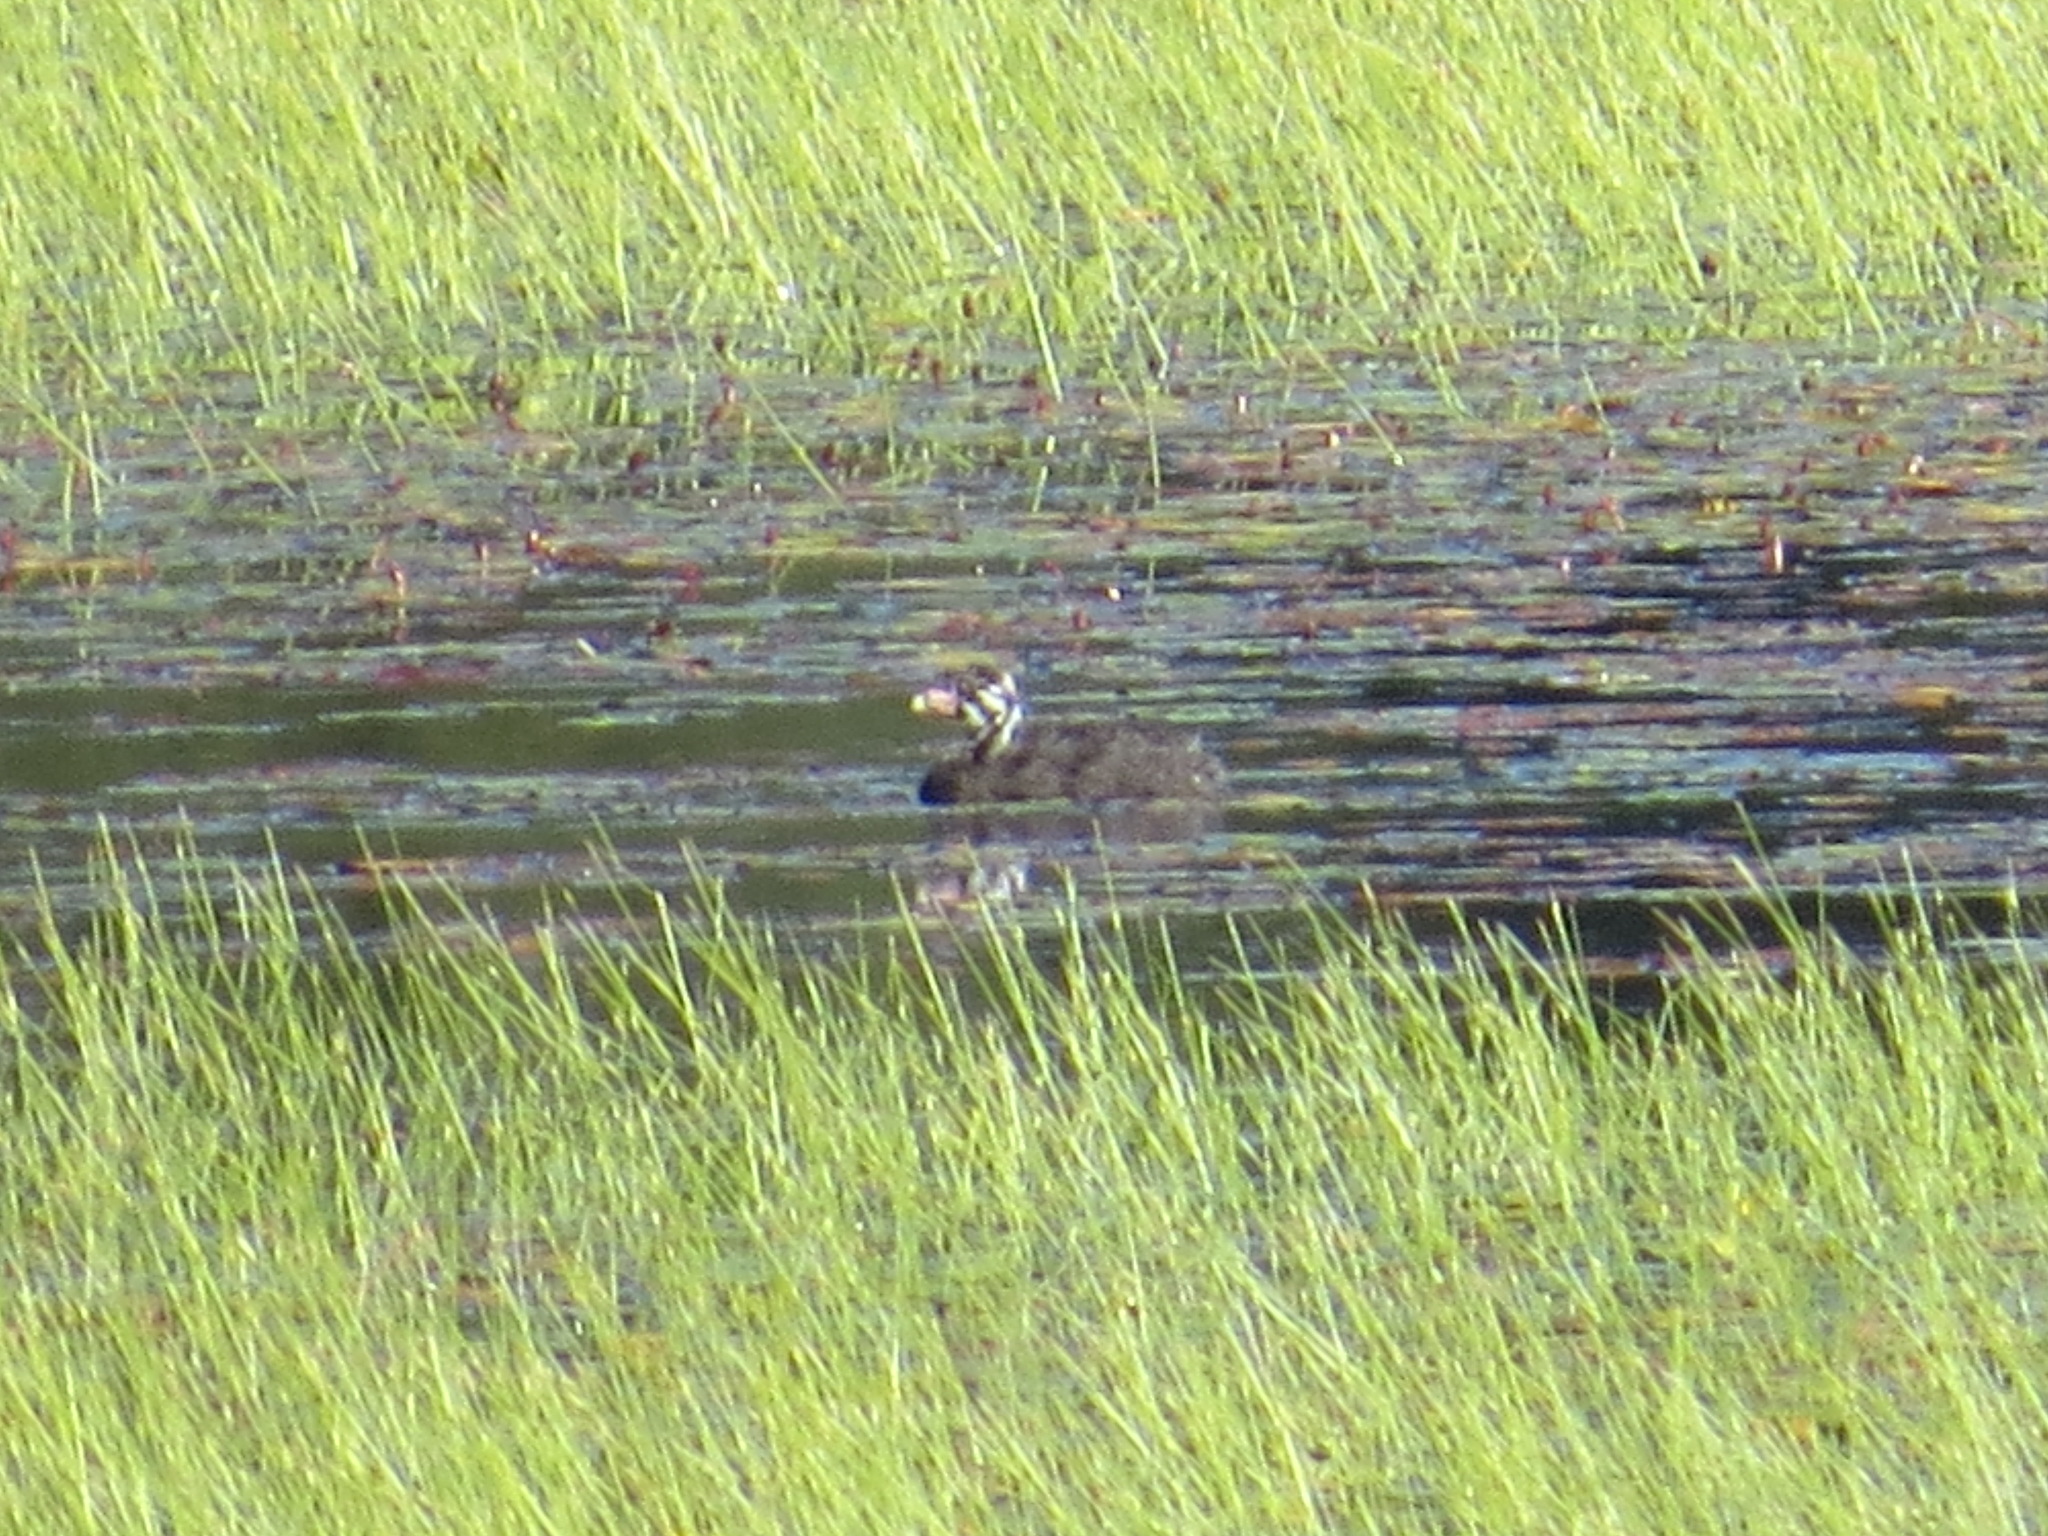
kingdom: Animalia
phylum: Chordata
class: Aves
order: Podicipediformes
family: Podicipedidae
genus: Podilymbus
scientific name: Podilymbus podiceps
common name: Pied-billed grebe
